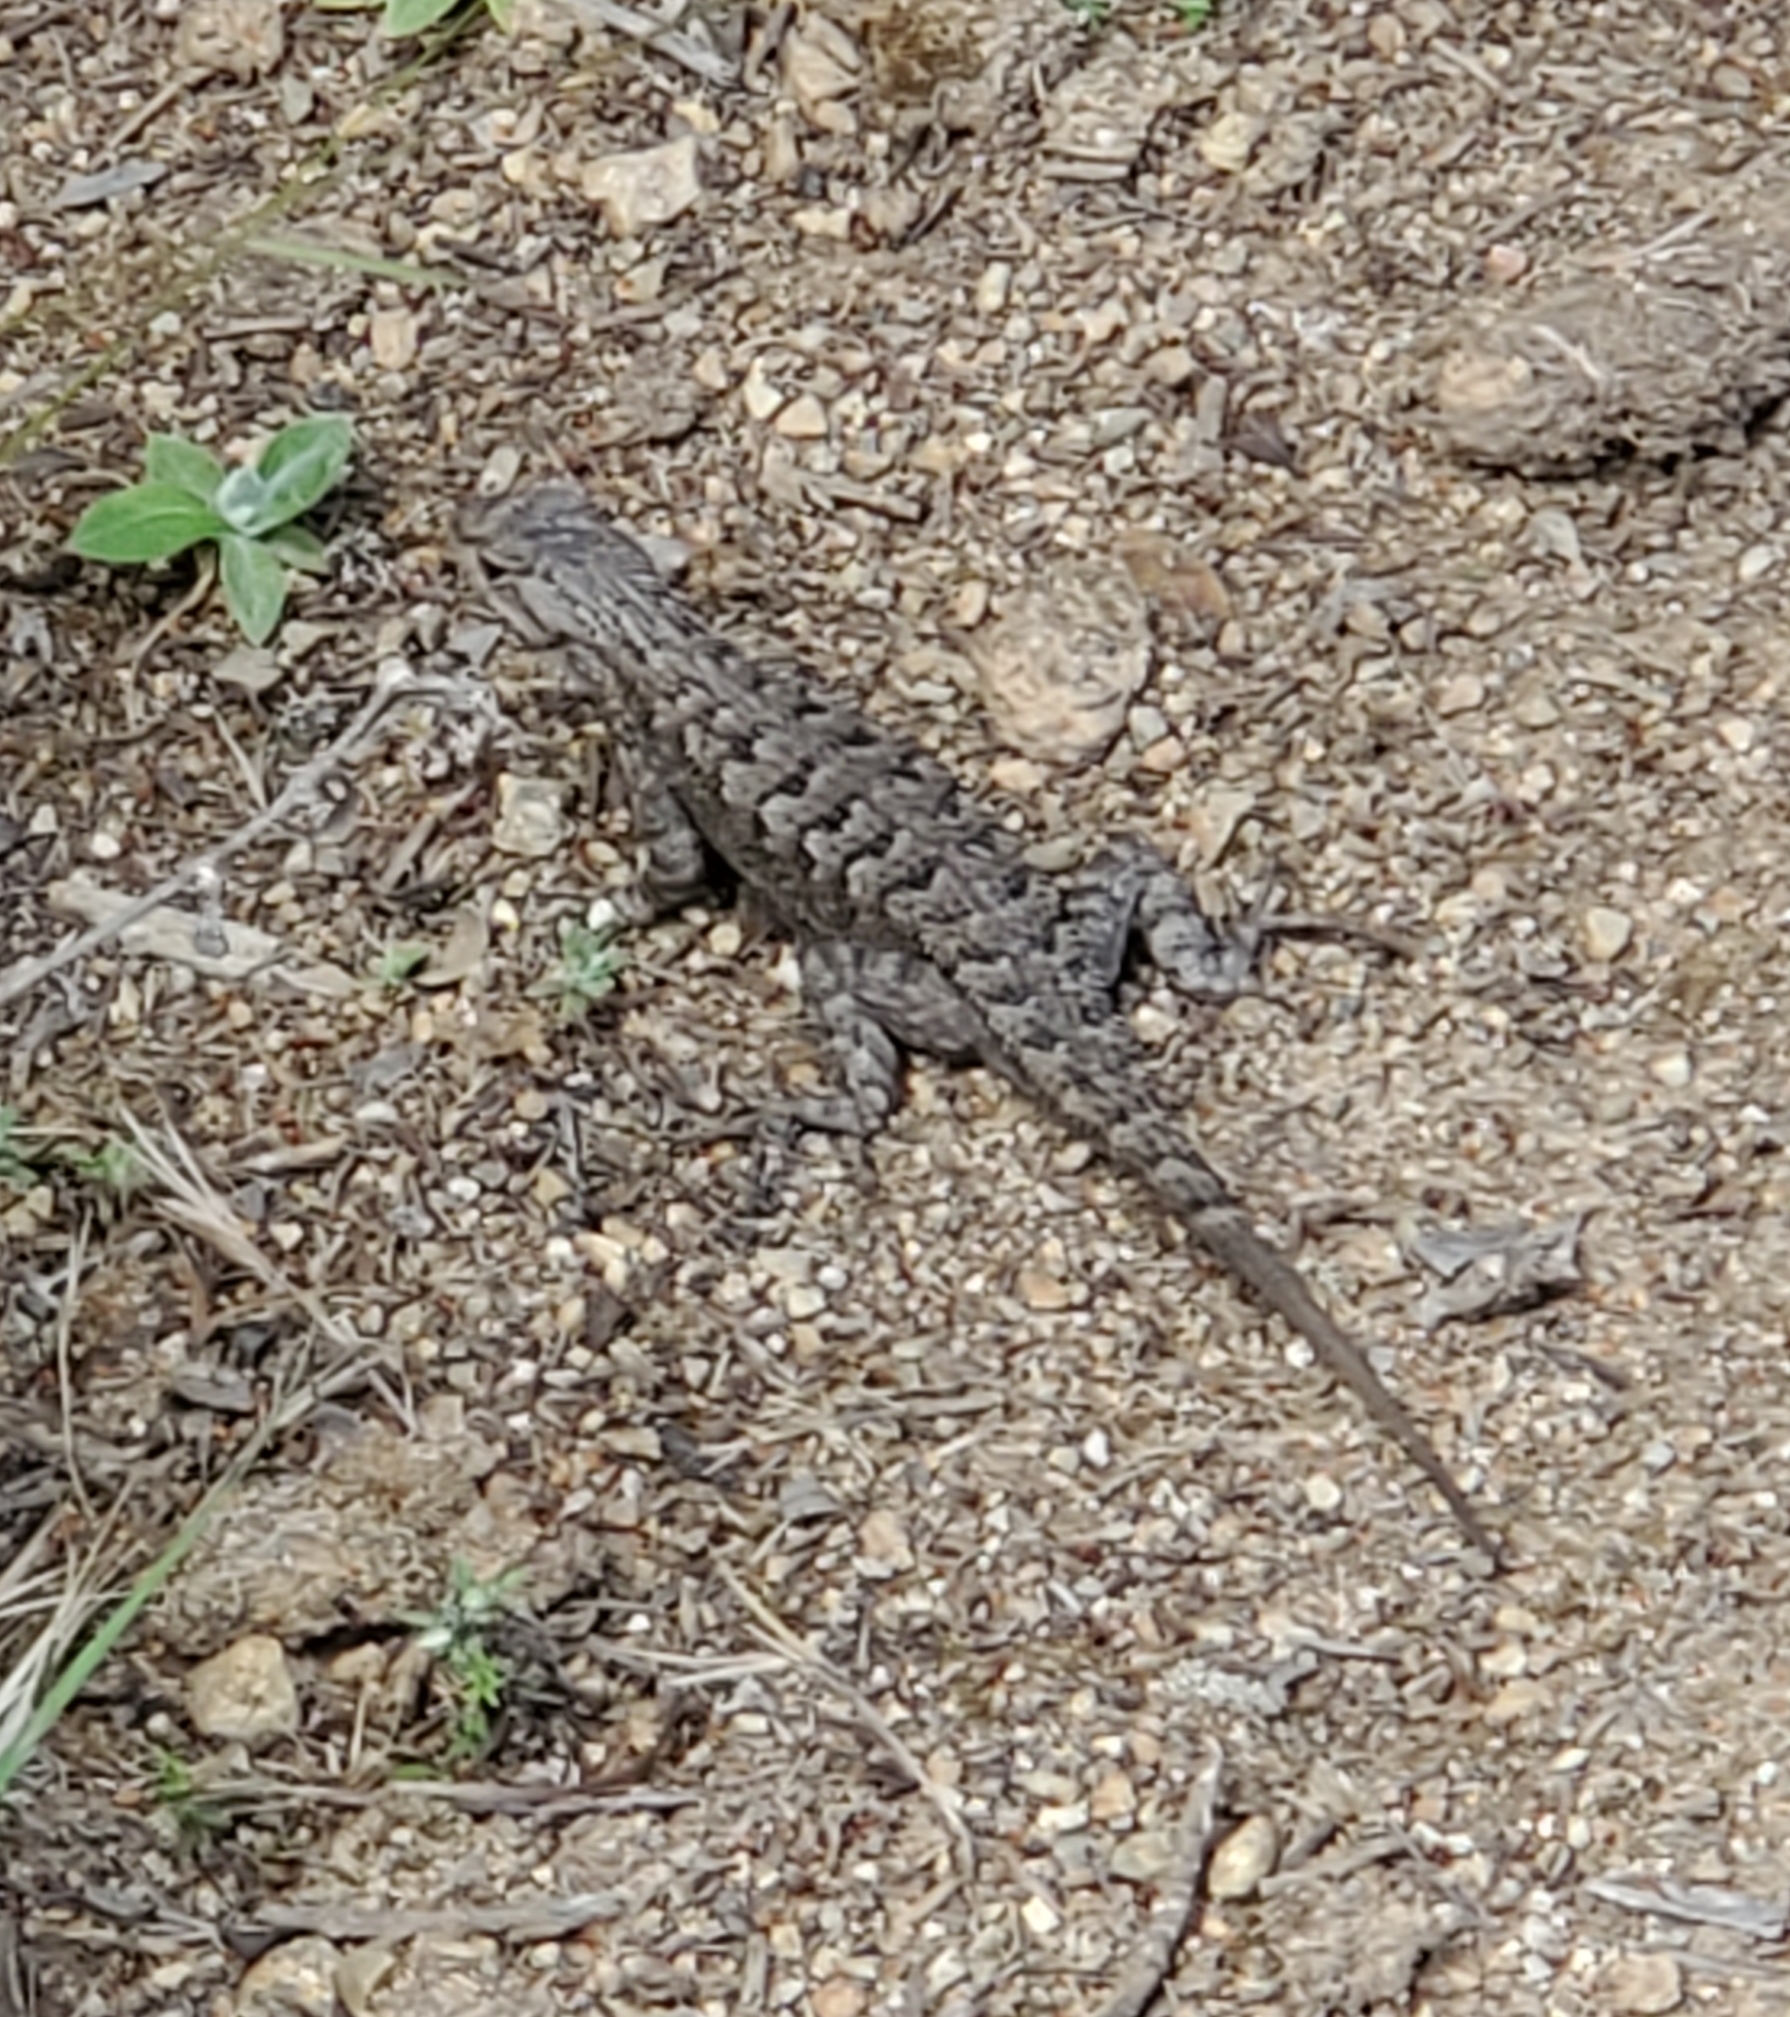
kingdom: Animalia
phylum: Chordata
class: Squamata
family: Phrynosomatidae
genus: Sceloporus
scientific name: Sceloporus occidentalis
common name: Western fence lizard
